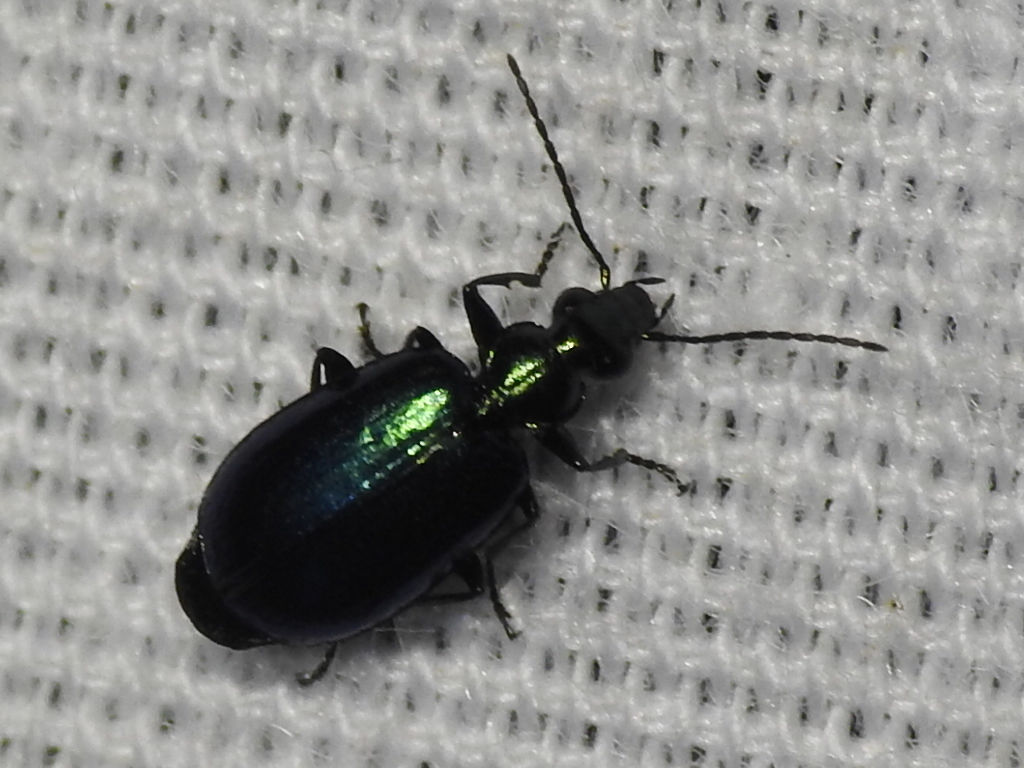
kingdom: Animalia
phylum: Arthropoda
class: Insecta
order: Coleoptera
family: Carabidae
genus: Lebia
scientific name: Lebia viridis
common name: Flower lebia beetle
